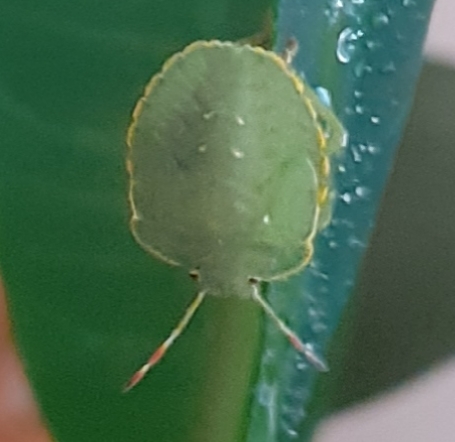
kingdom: Animalia
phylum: Arthropoda
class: Insecta
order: Hemiptera
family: Pentatomidae
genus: Palomena
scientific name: Palomena prasina
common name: Green shieldbug
